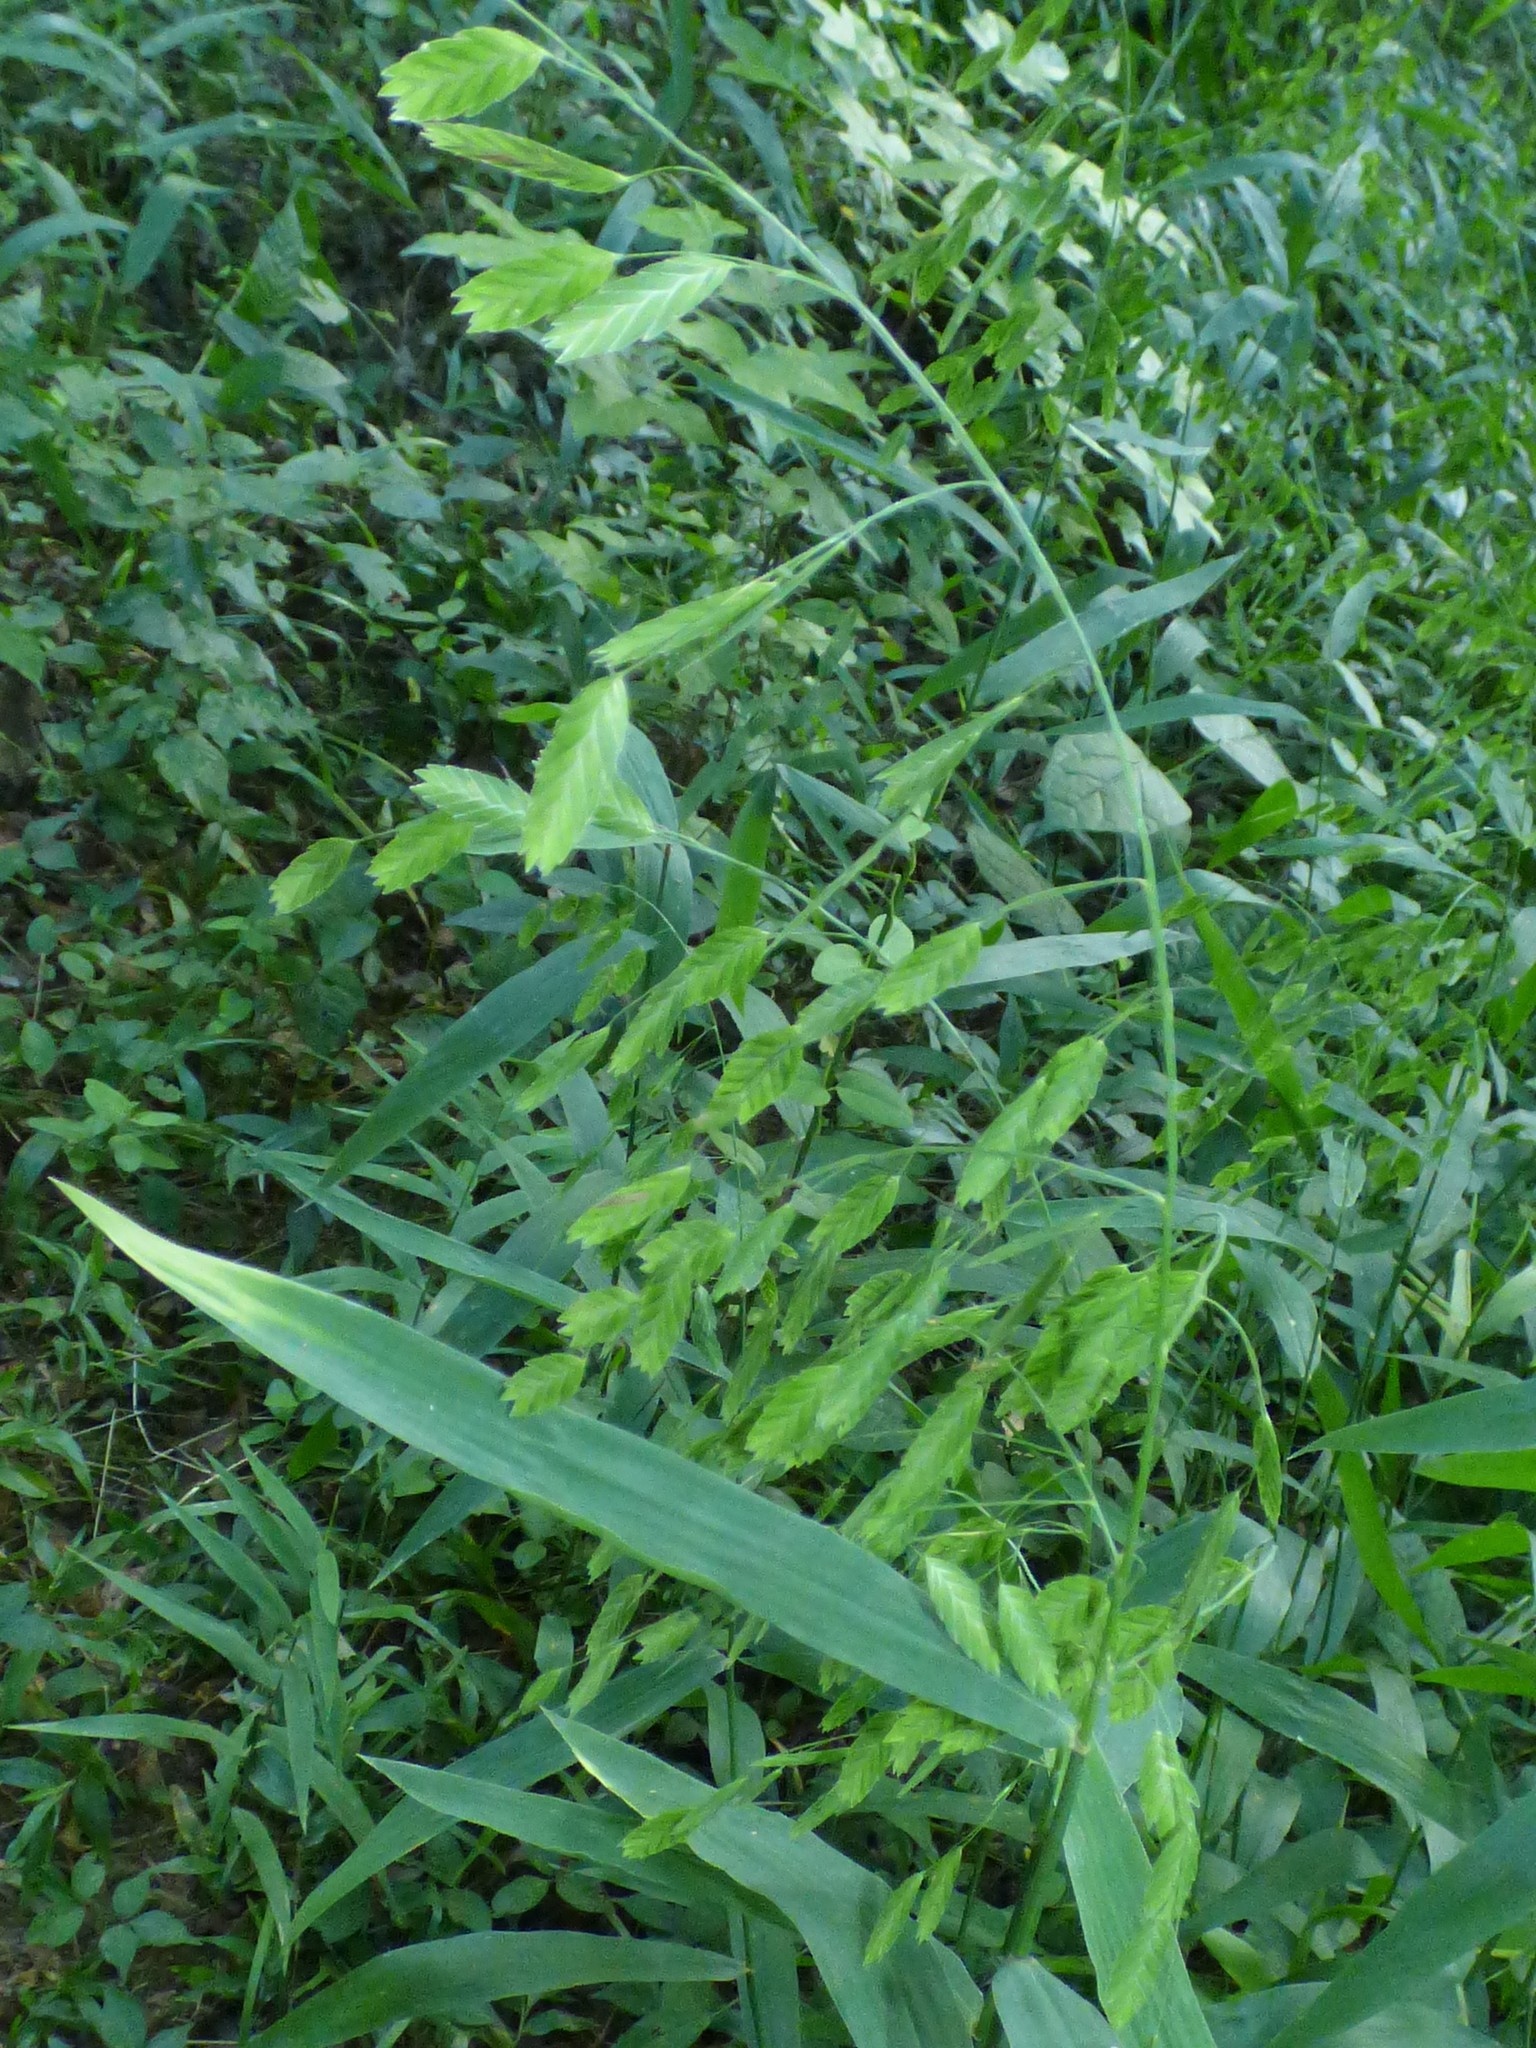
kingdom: Plantae
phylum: Tracheophyta
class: Liliopsida
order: Poales
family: Poaceae
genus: Chasmanthium
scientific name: Chasmanthium latifolium
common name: Broad-leaved chasmanthium
